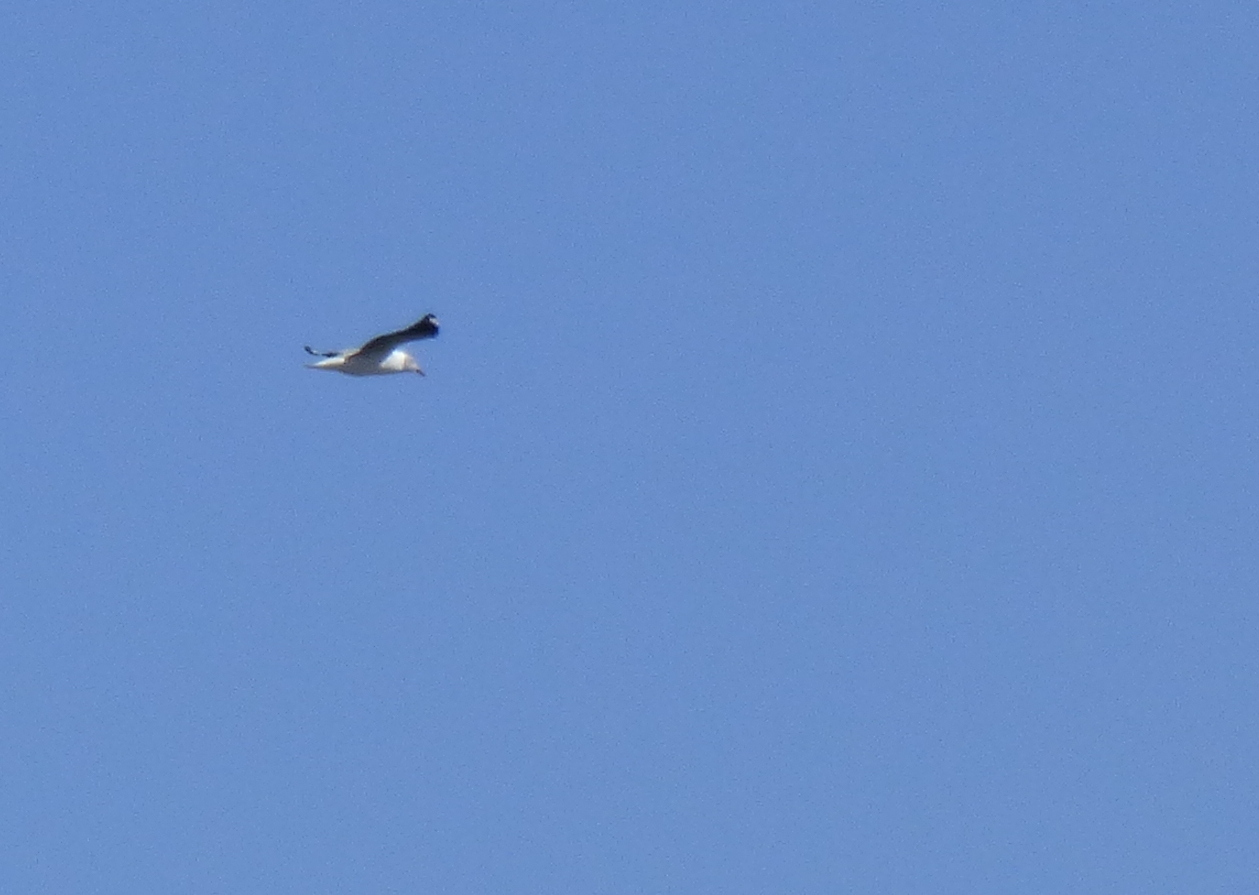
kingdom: Animalia
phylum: Chordata
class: Aves
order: Charadriiformes
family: Laridae
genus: Chroicocephalus
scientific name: Chroicocephalus cirrocephalus
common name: Grey-headed gull
